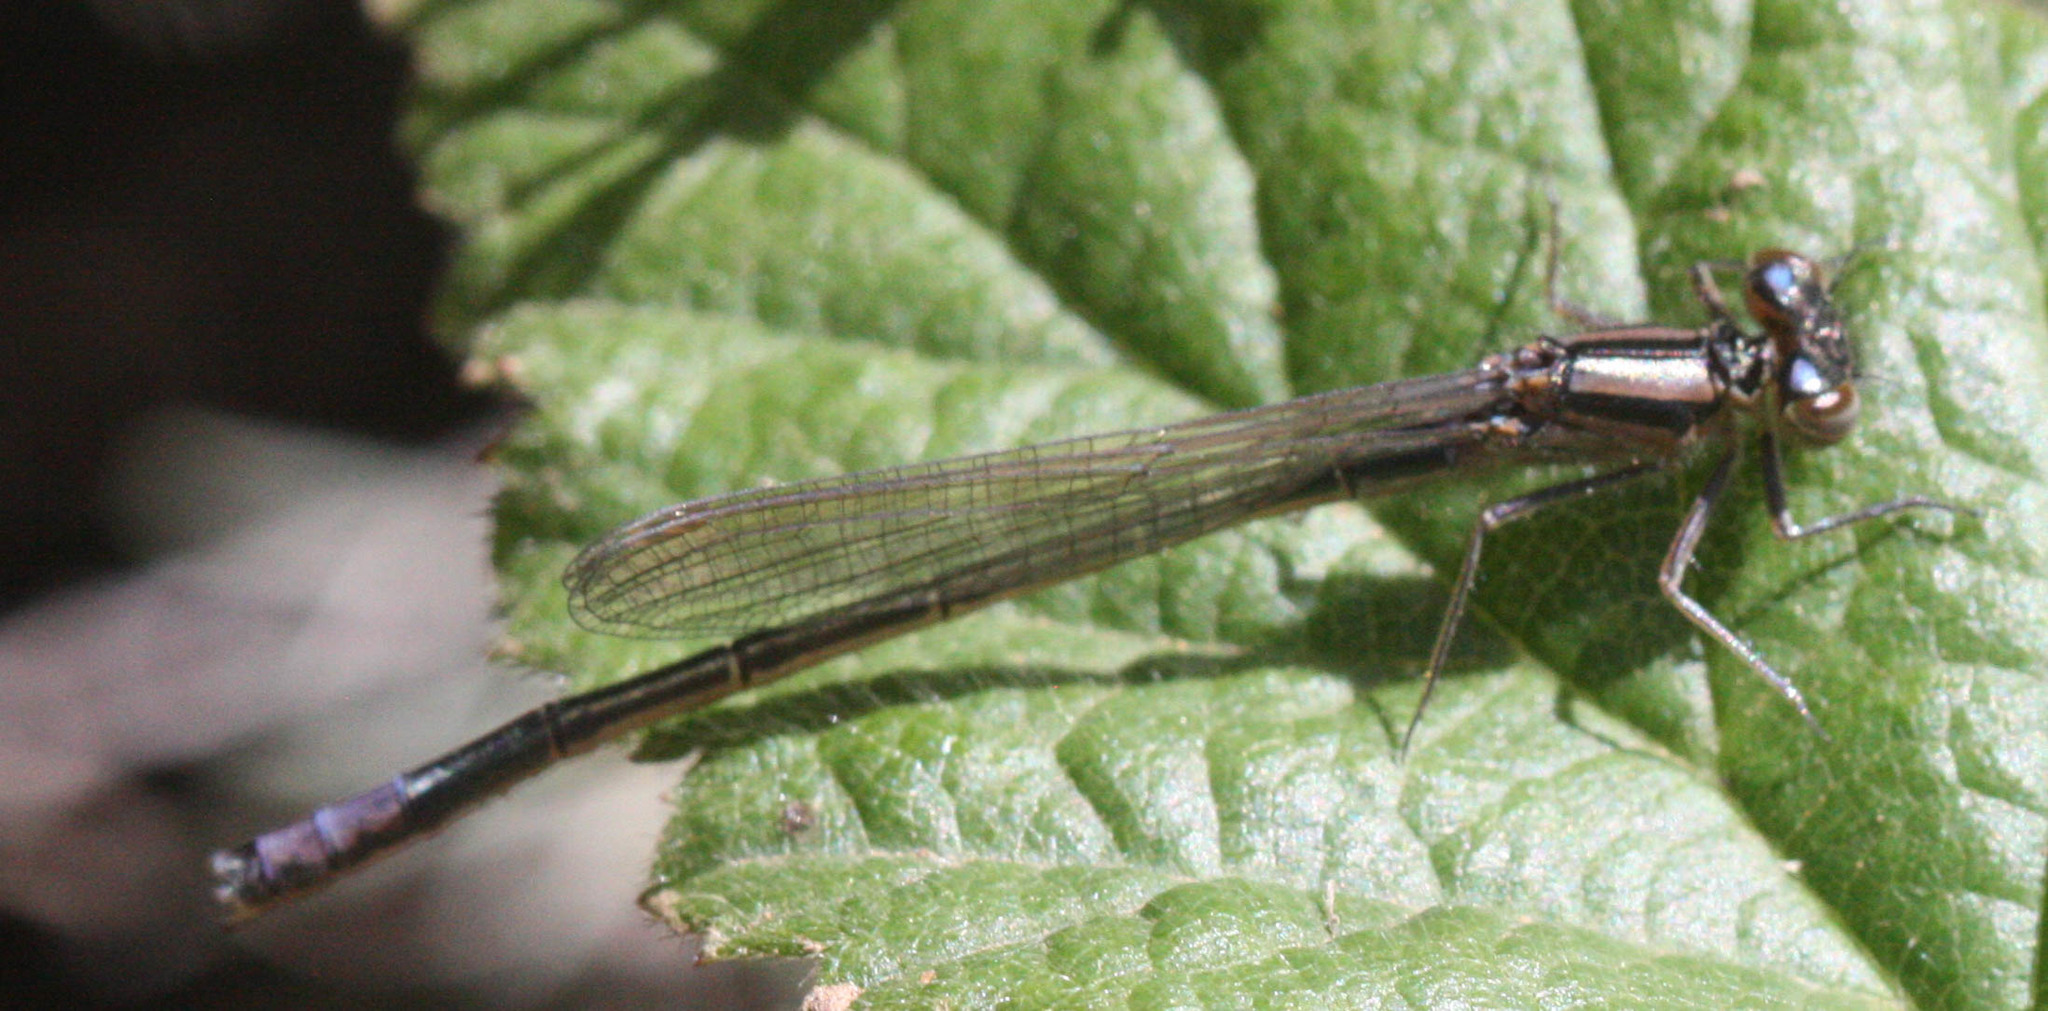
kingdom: Animalia
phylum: Arthropoda
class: Insecta
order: Odonata
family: Coenagrionidae
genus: Ischnura
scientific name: Ischnura erratica
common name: Swift forktail
